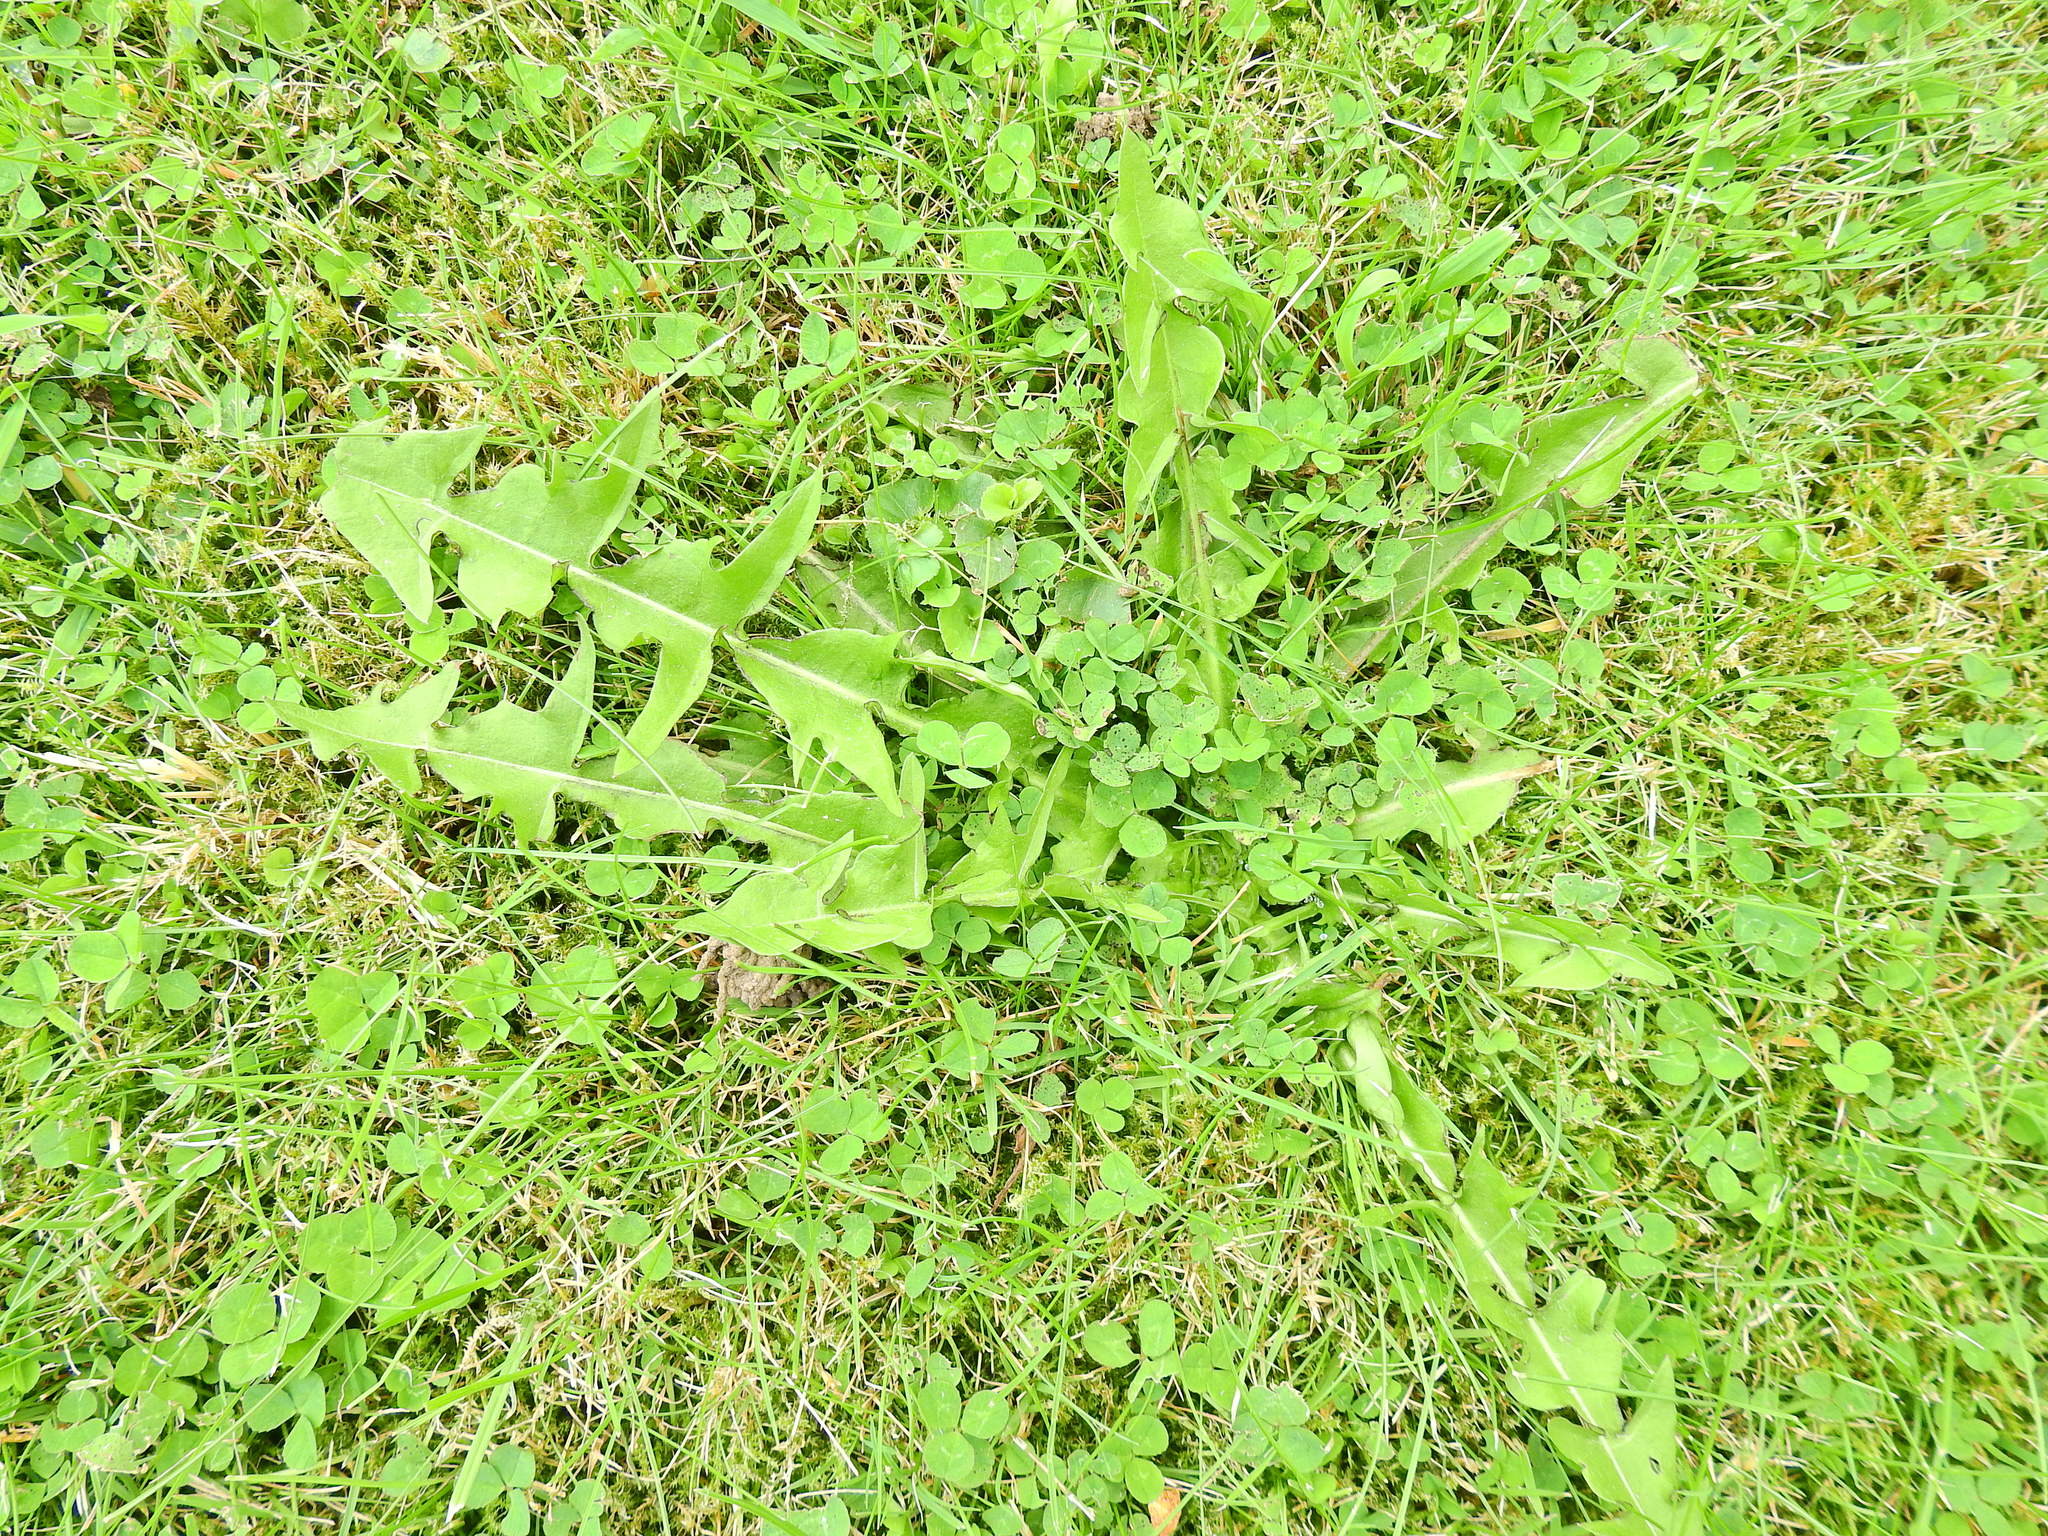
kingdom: Plantae
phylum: Tracheophyta
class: Magnoliopsida
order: Asterales
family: Asteraceae
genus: Taraxacum
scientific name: Taraxacum officinale
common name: Common dandelion
